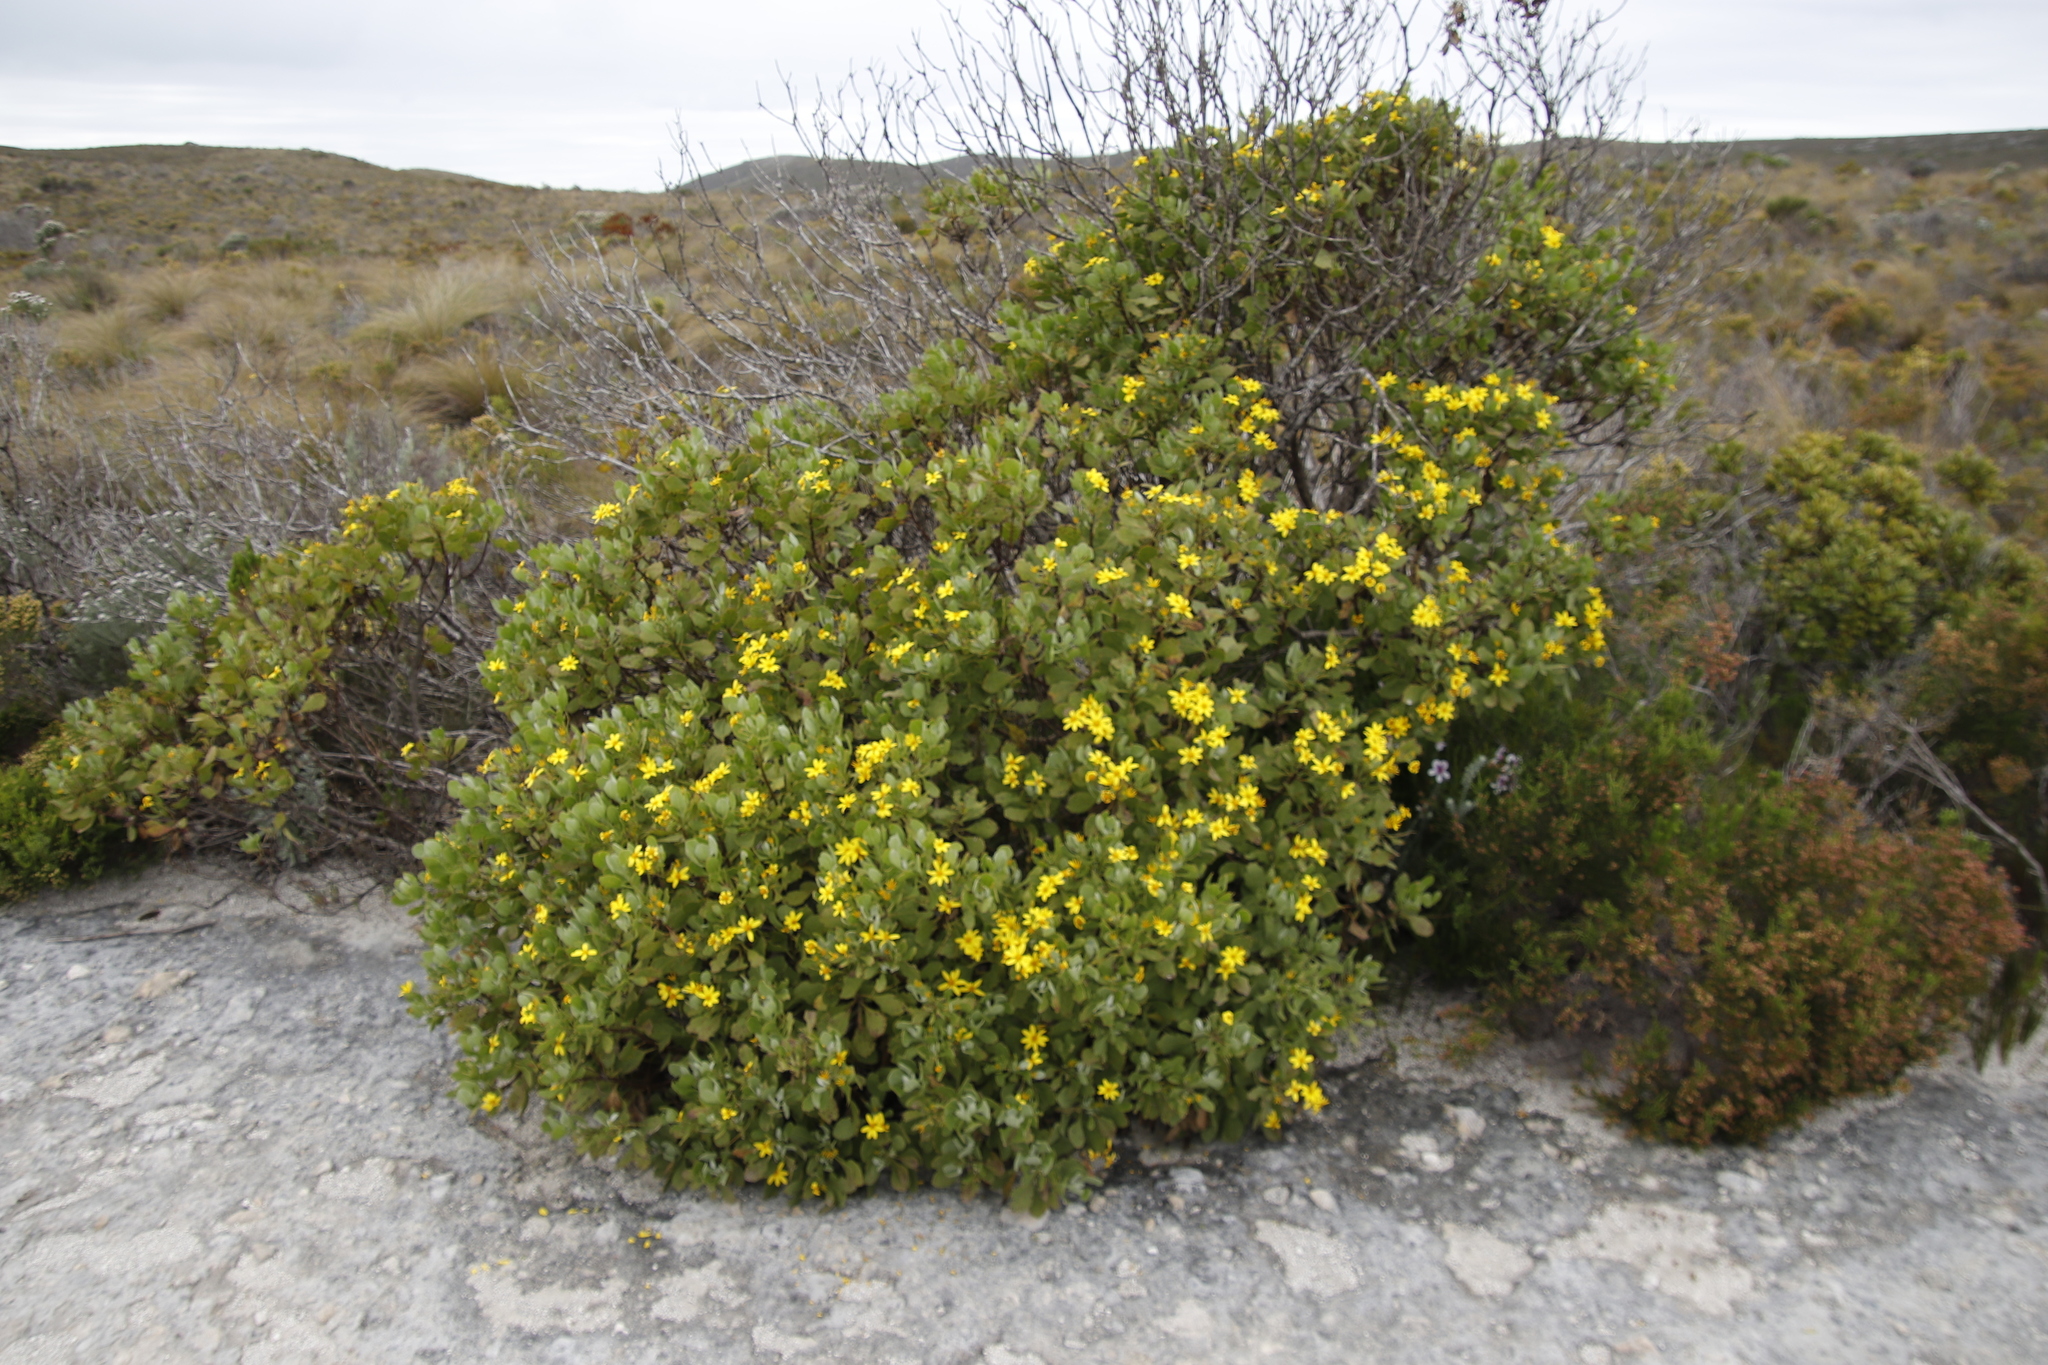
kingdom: Plantae
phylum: Tracheophyta
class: Magnoliopsida
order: Asterales
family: Asteraceae
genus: Osteospermum
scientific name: Osteospermum moniliferum
